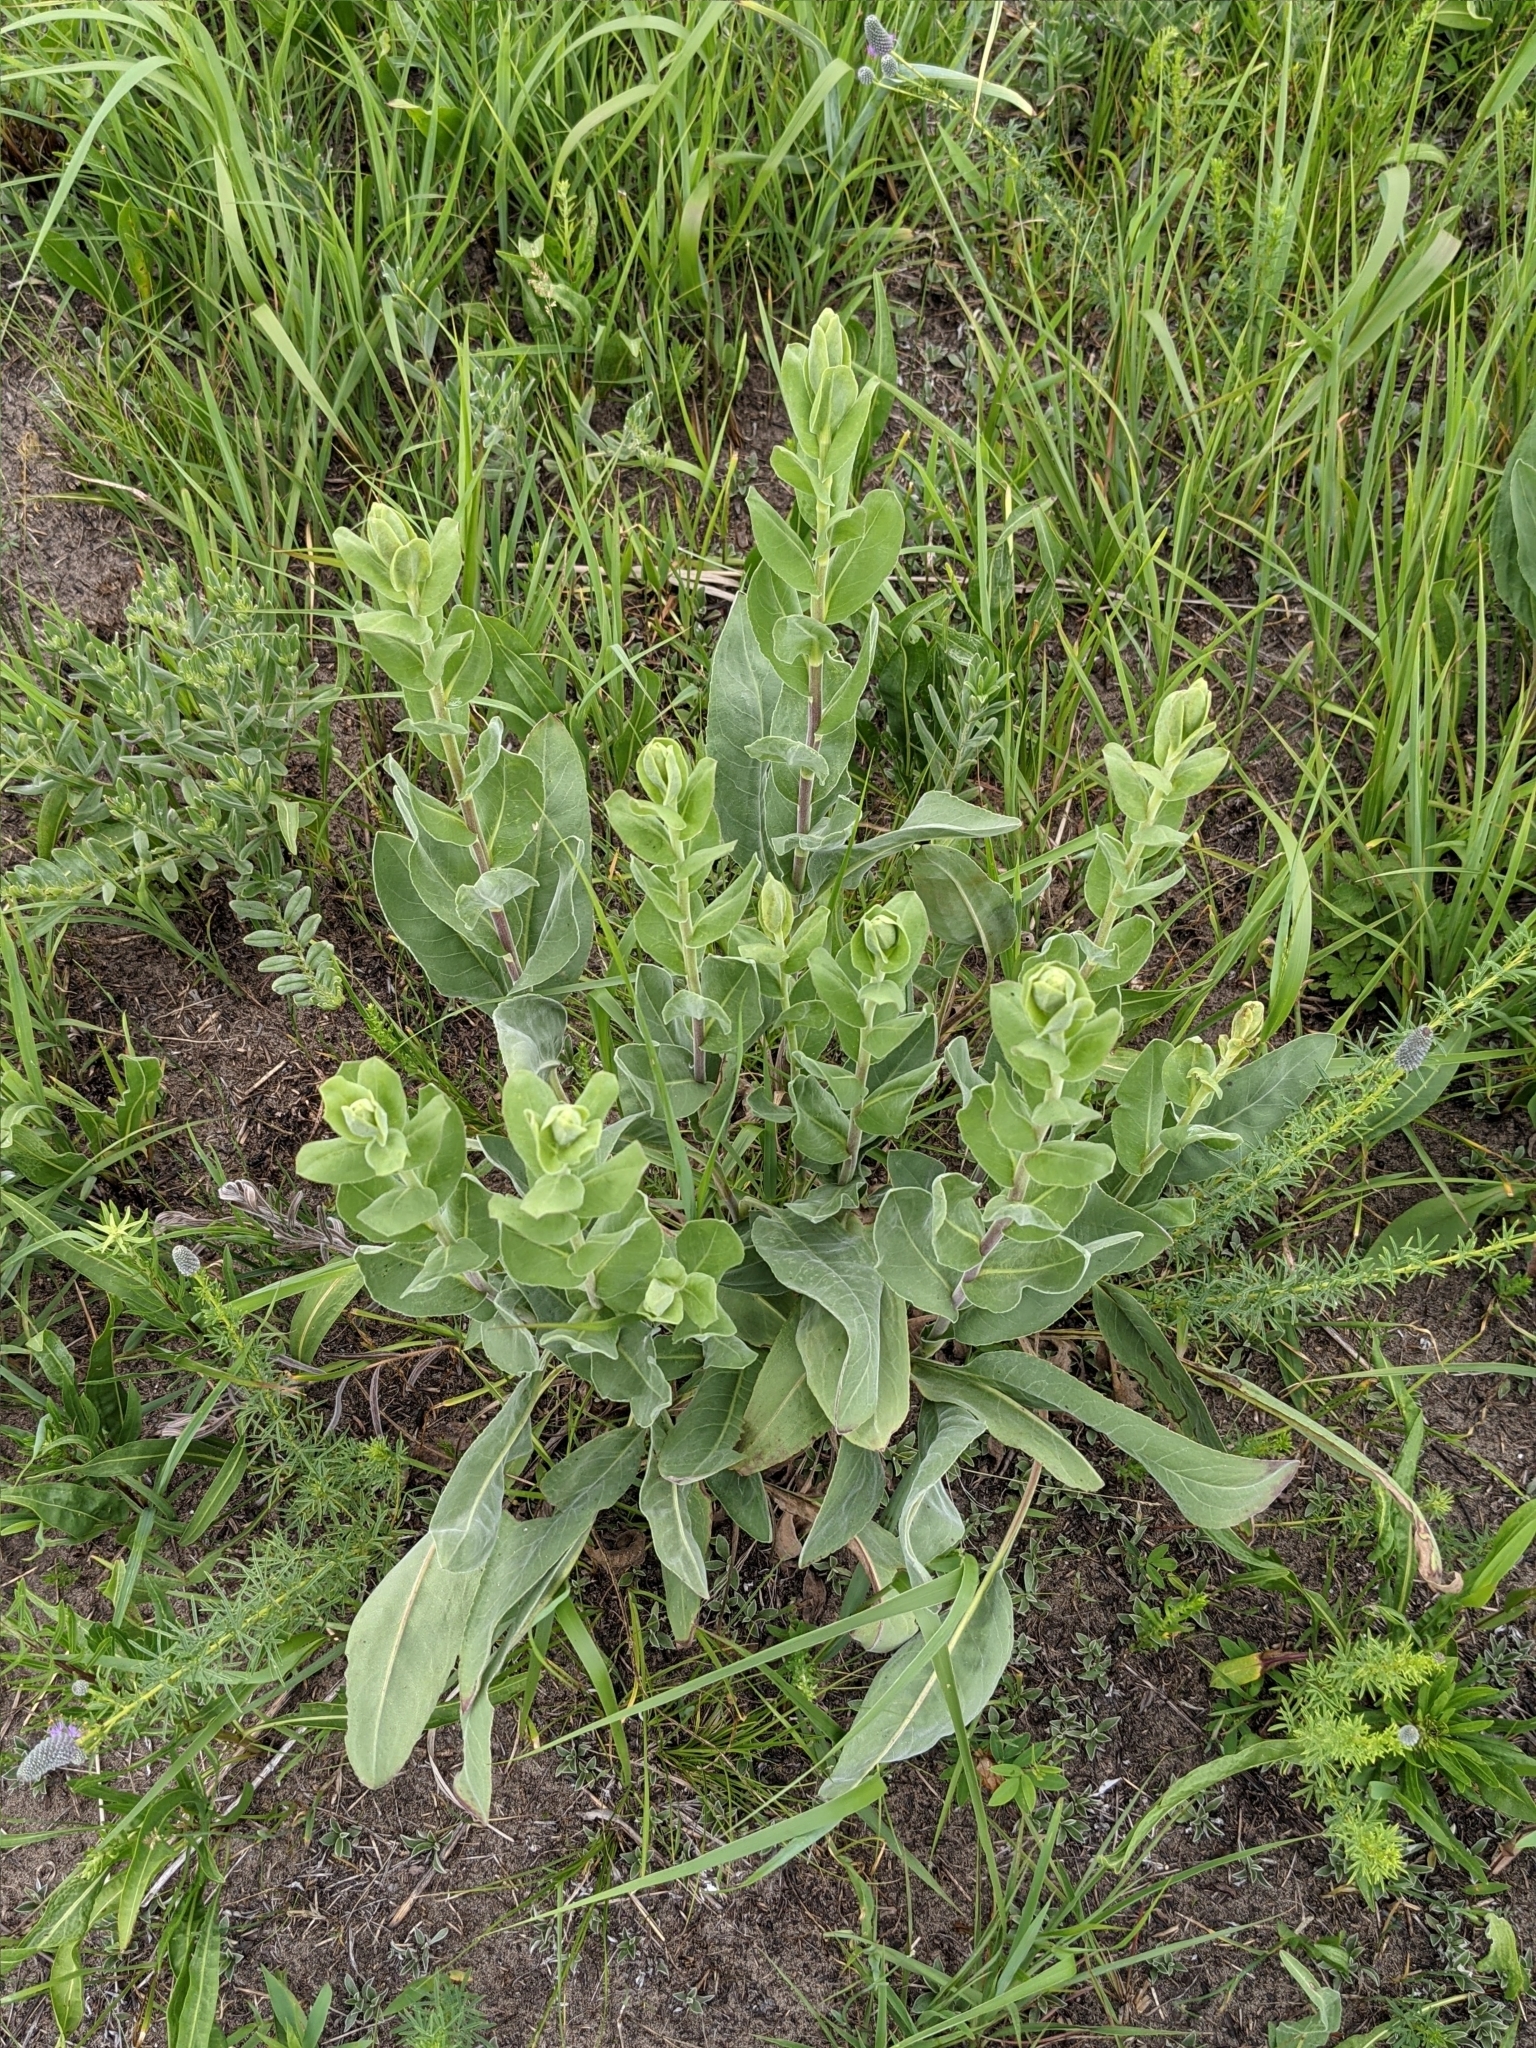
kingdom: Plantae
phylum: Tracheophyta
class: Magnoliopsida
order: Asterales
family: Asteraceae
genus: Solidago
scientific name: Solidago rigida
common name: Rigid goldenrod
